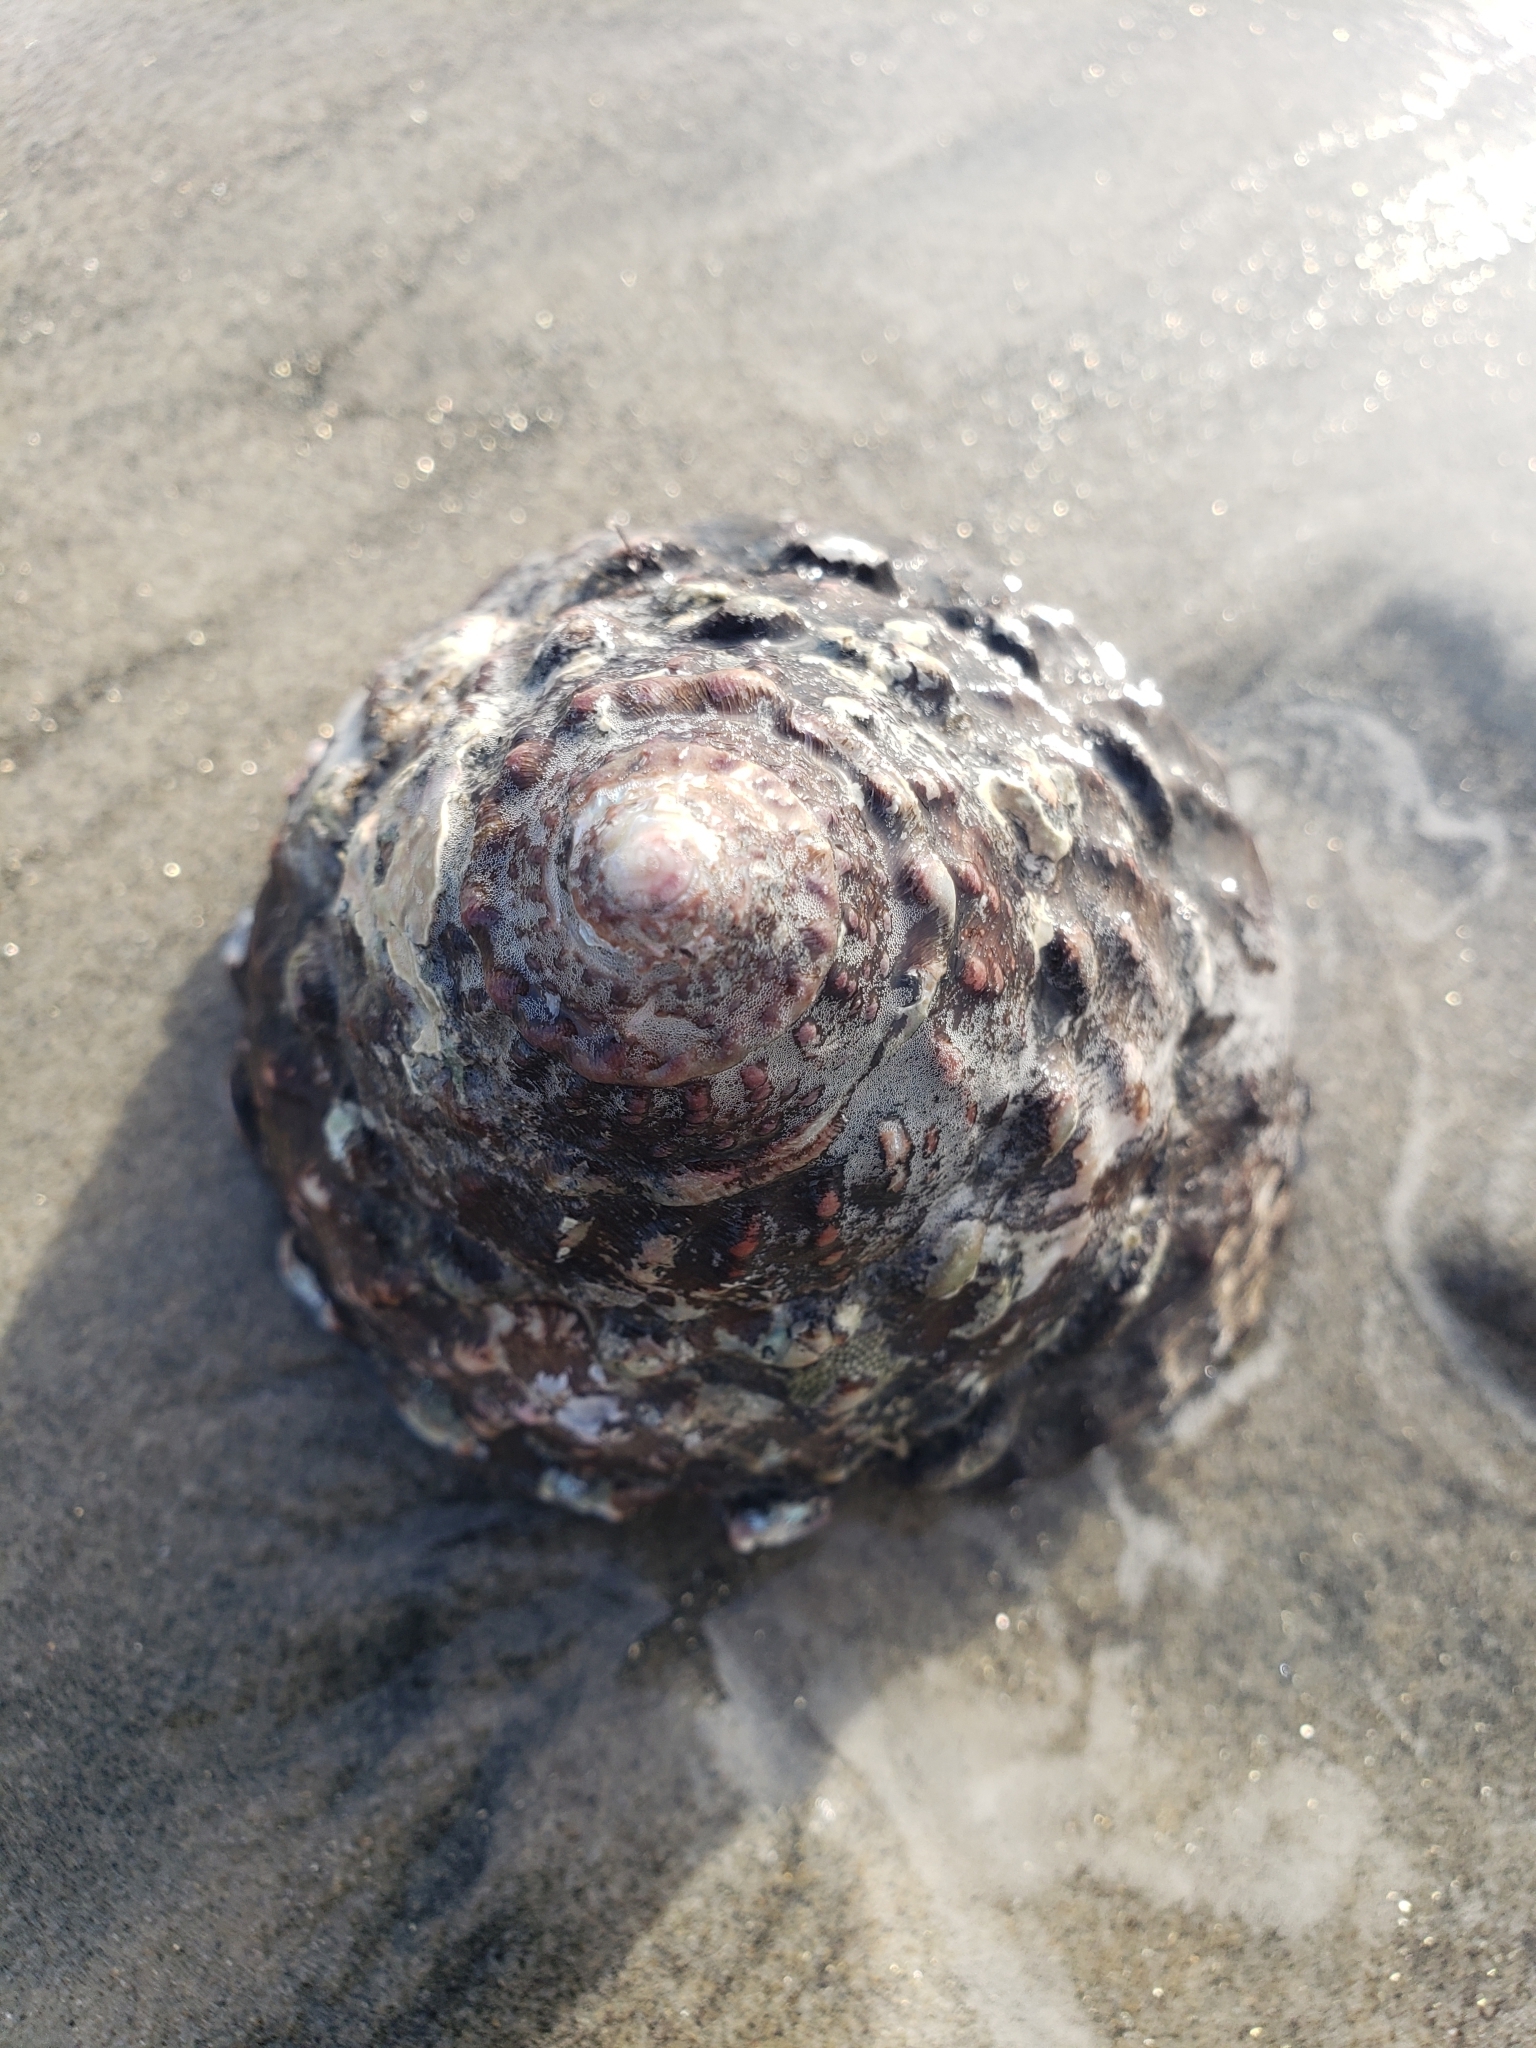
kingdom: Animalia
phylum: Mollusca
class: Gastropoda
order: Trochida
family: Turbinidae
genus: Megastraea
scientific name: Megastraea undosa
